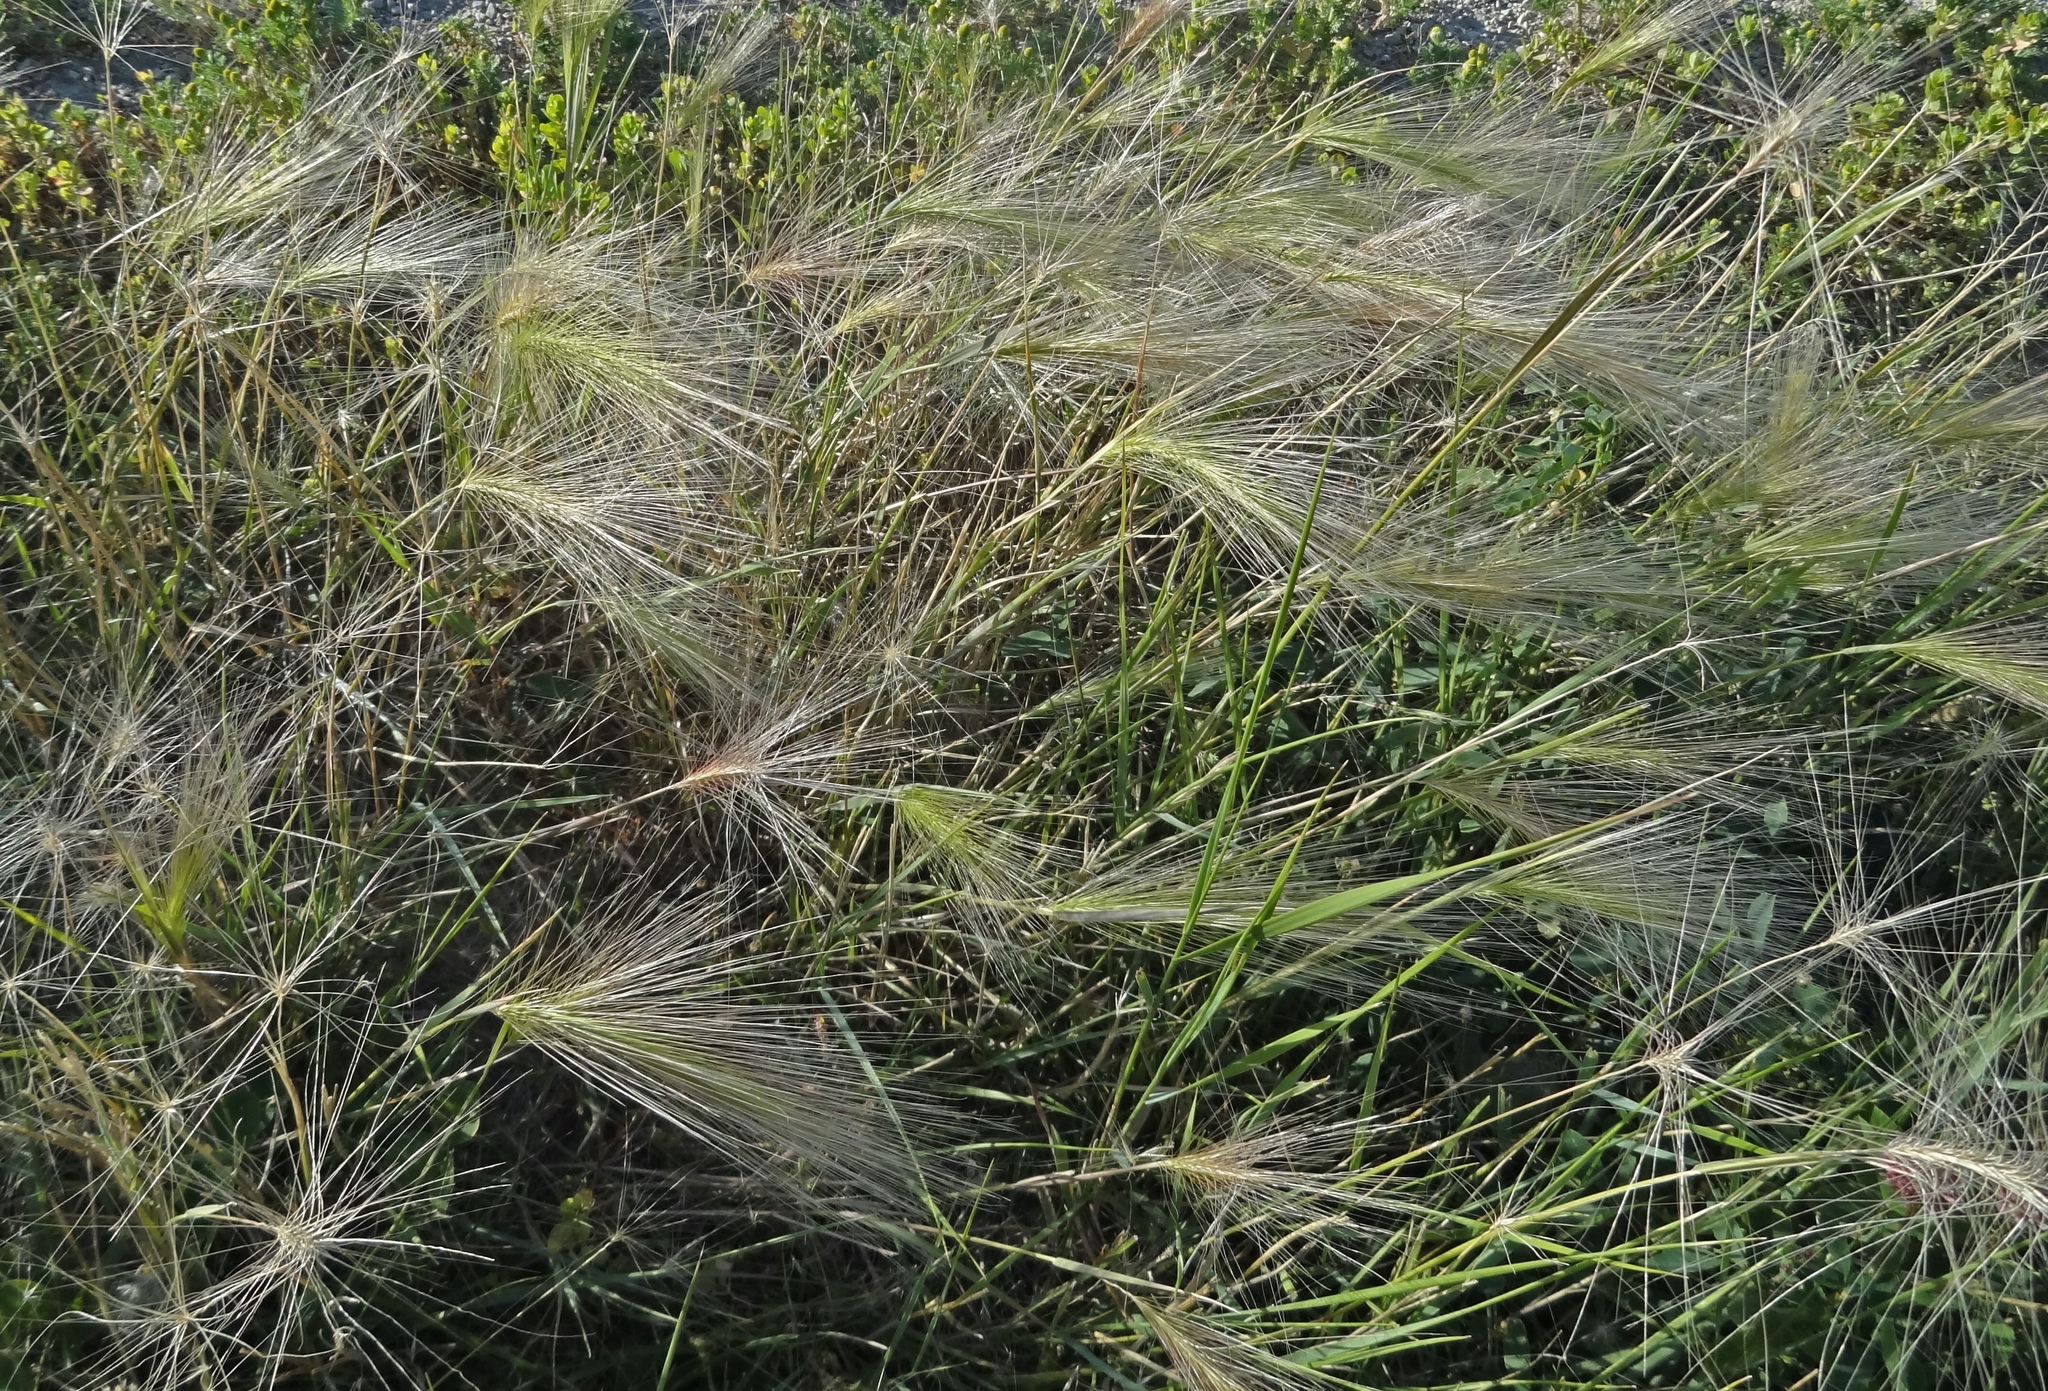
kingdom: Plantae
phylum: Tracheophyta
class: Liliopsida
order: Poales
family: Poaceae
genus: Hordeum
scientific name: Hordeum jubatum
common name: Foxtail barley
